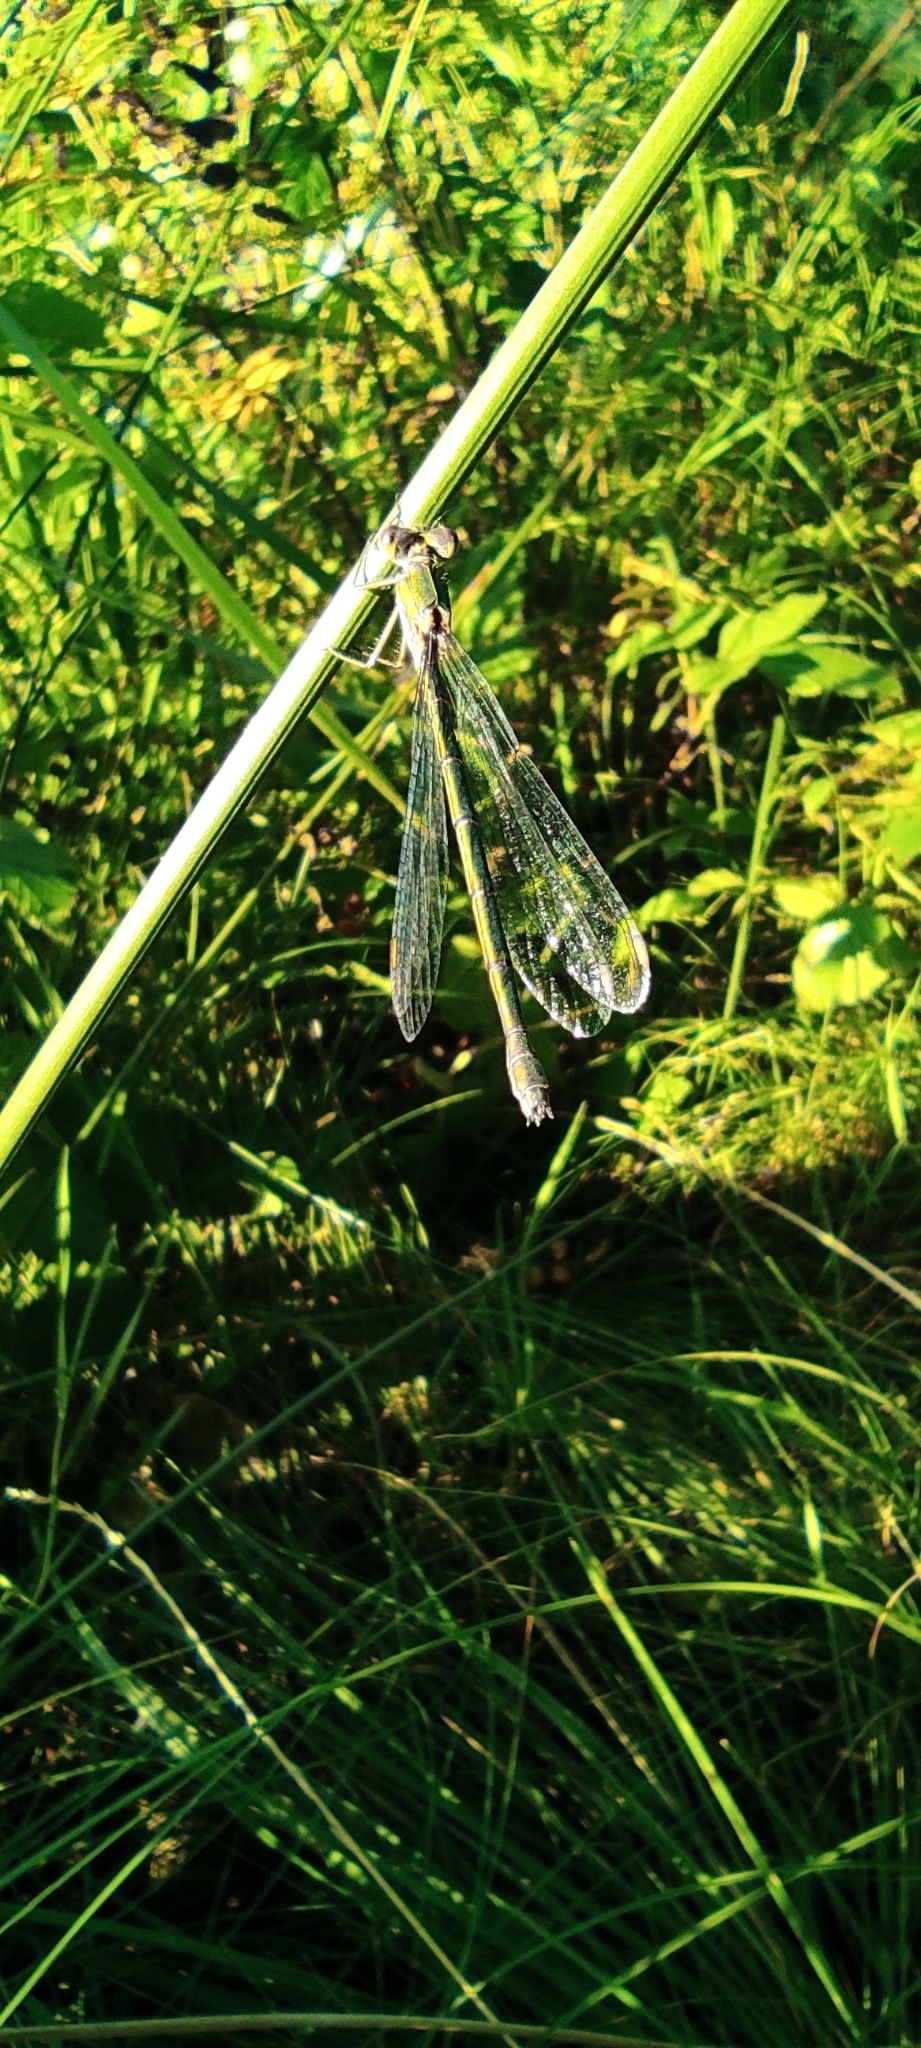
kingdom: Animalia
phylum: Arthropoda
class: Insecta
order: Odonata
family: Lestidae
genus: Lestes
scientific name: Lestes dryas
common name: Scarce emerald damselfly
